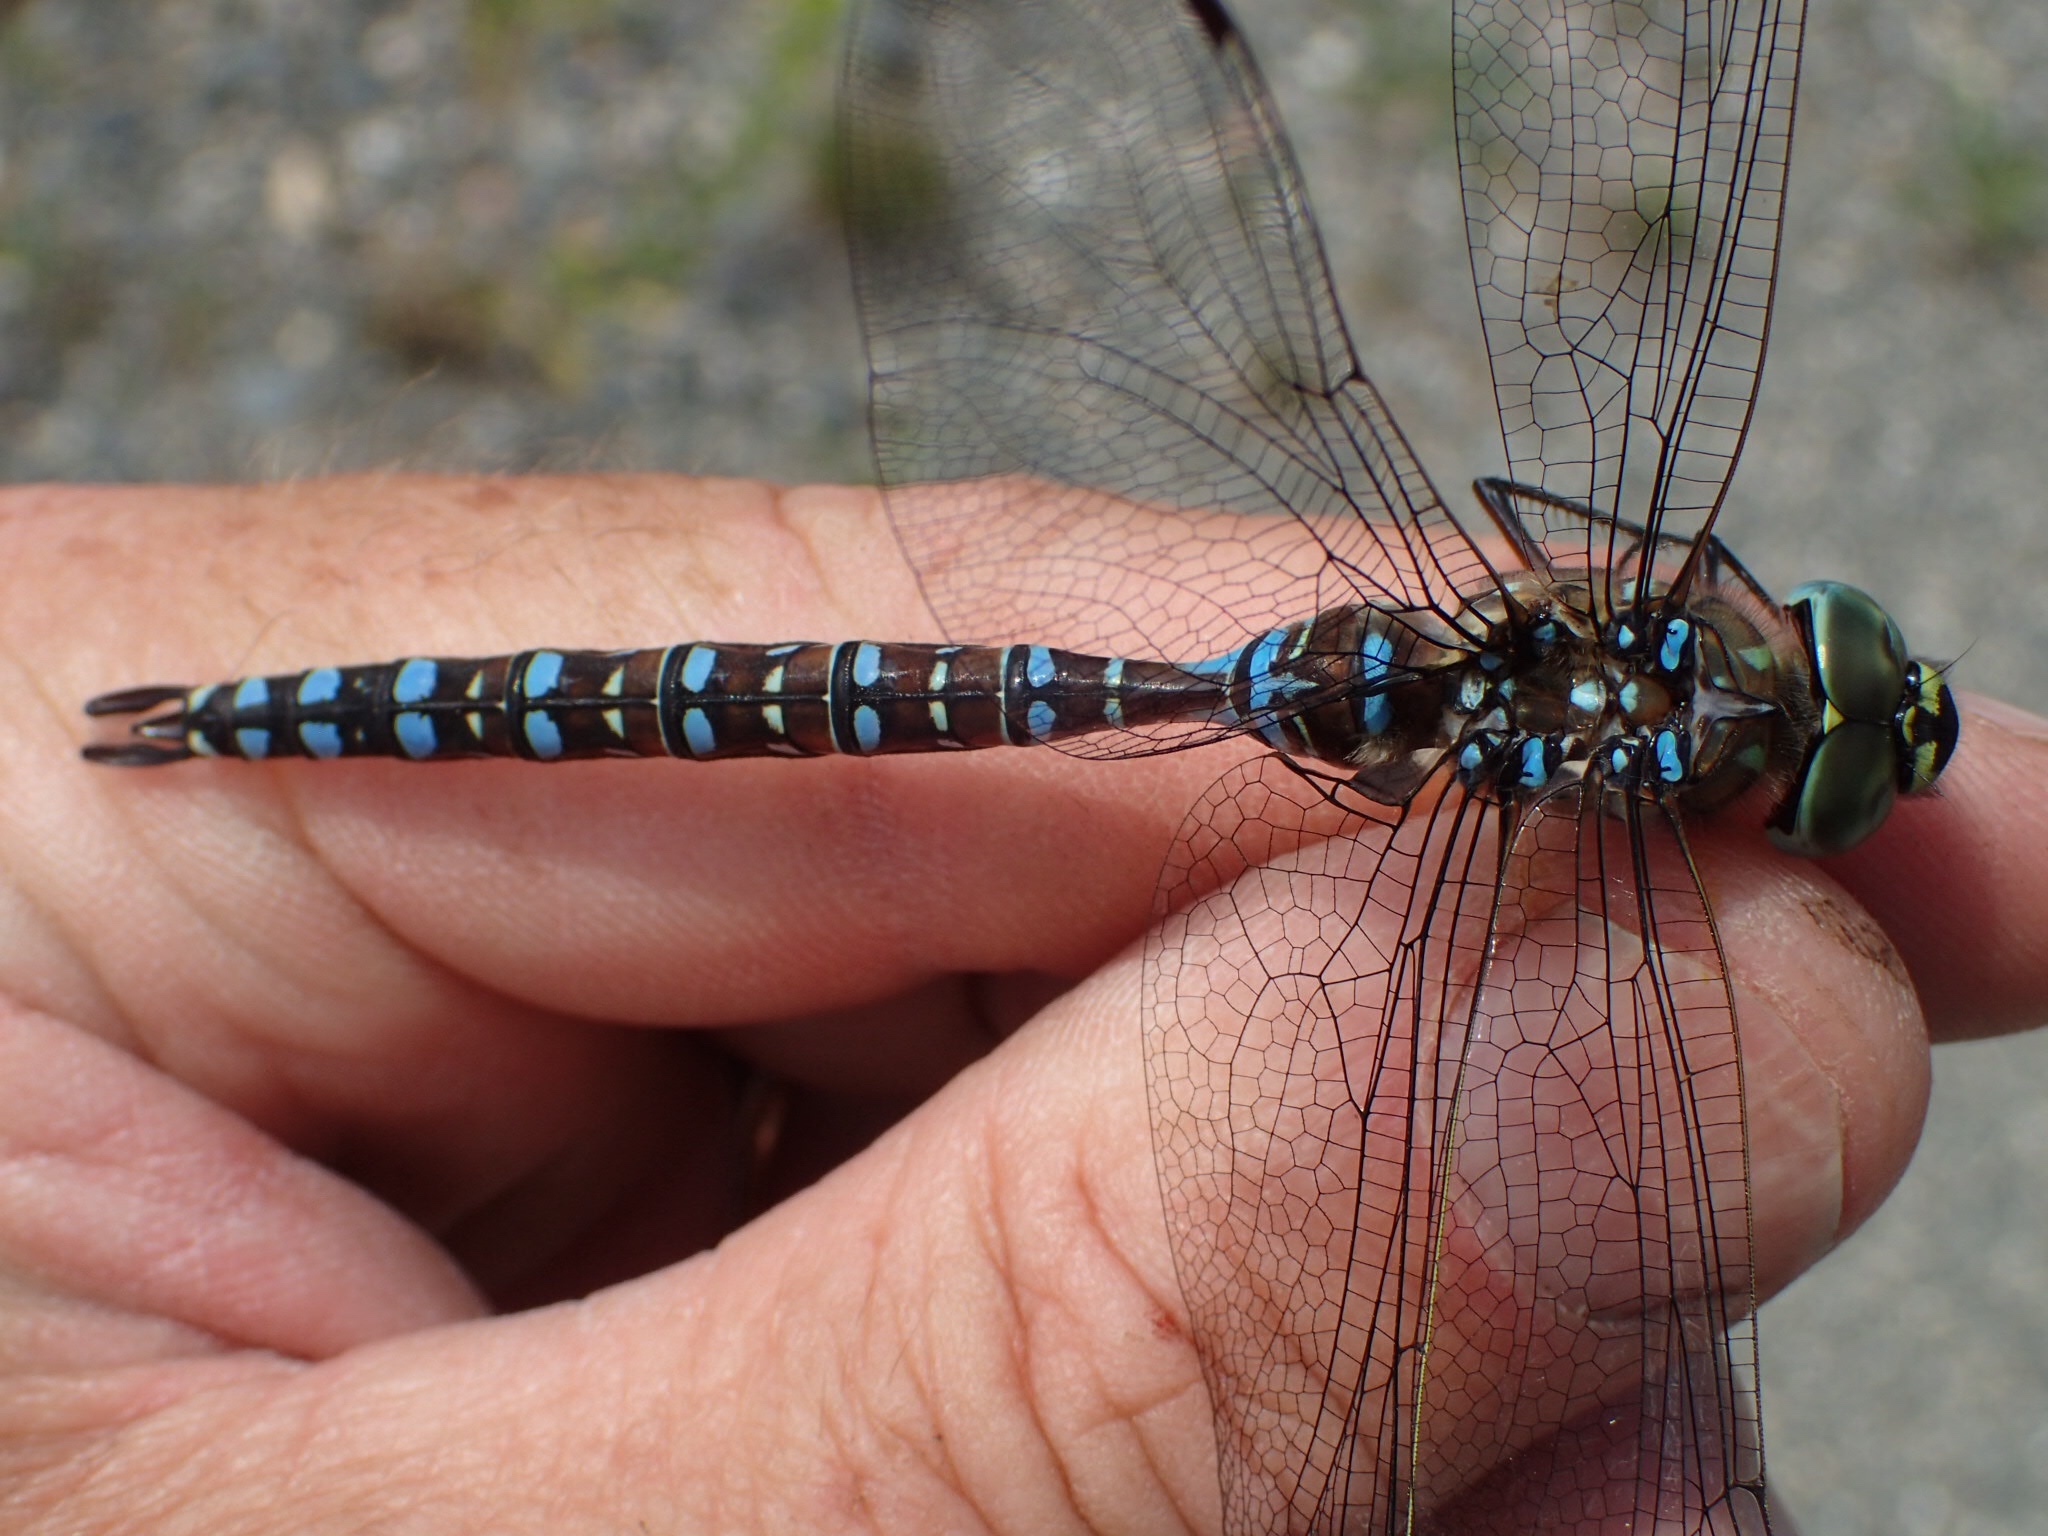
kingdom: Animalia
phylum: Arthropoda
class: Insecta
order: Odonata
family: Aeshnidae
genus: Aeshna
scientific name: Aeshna interrupta
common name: Variable darner
